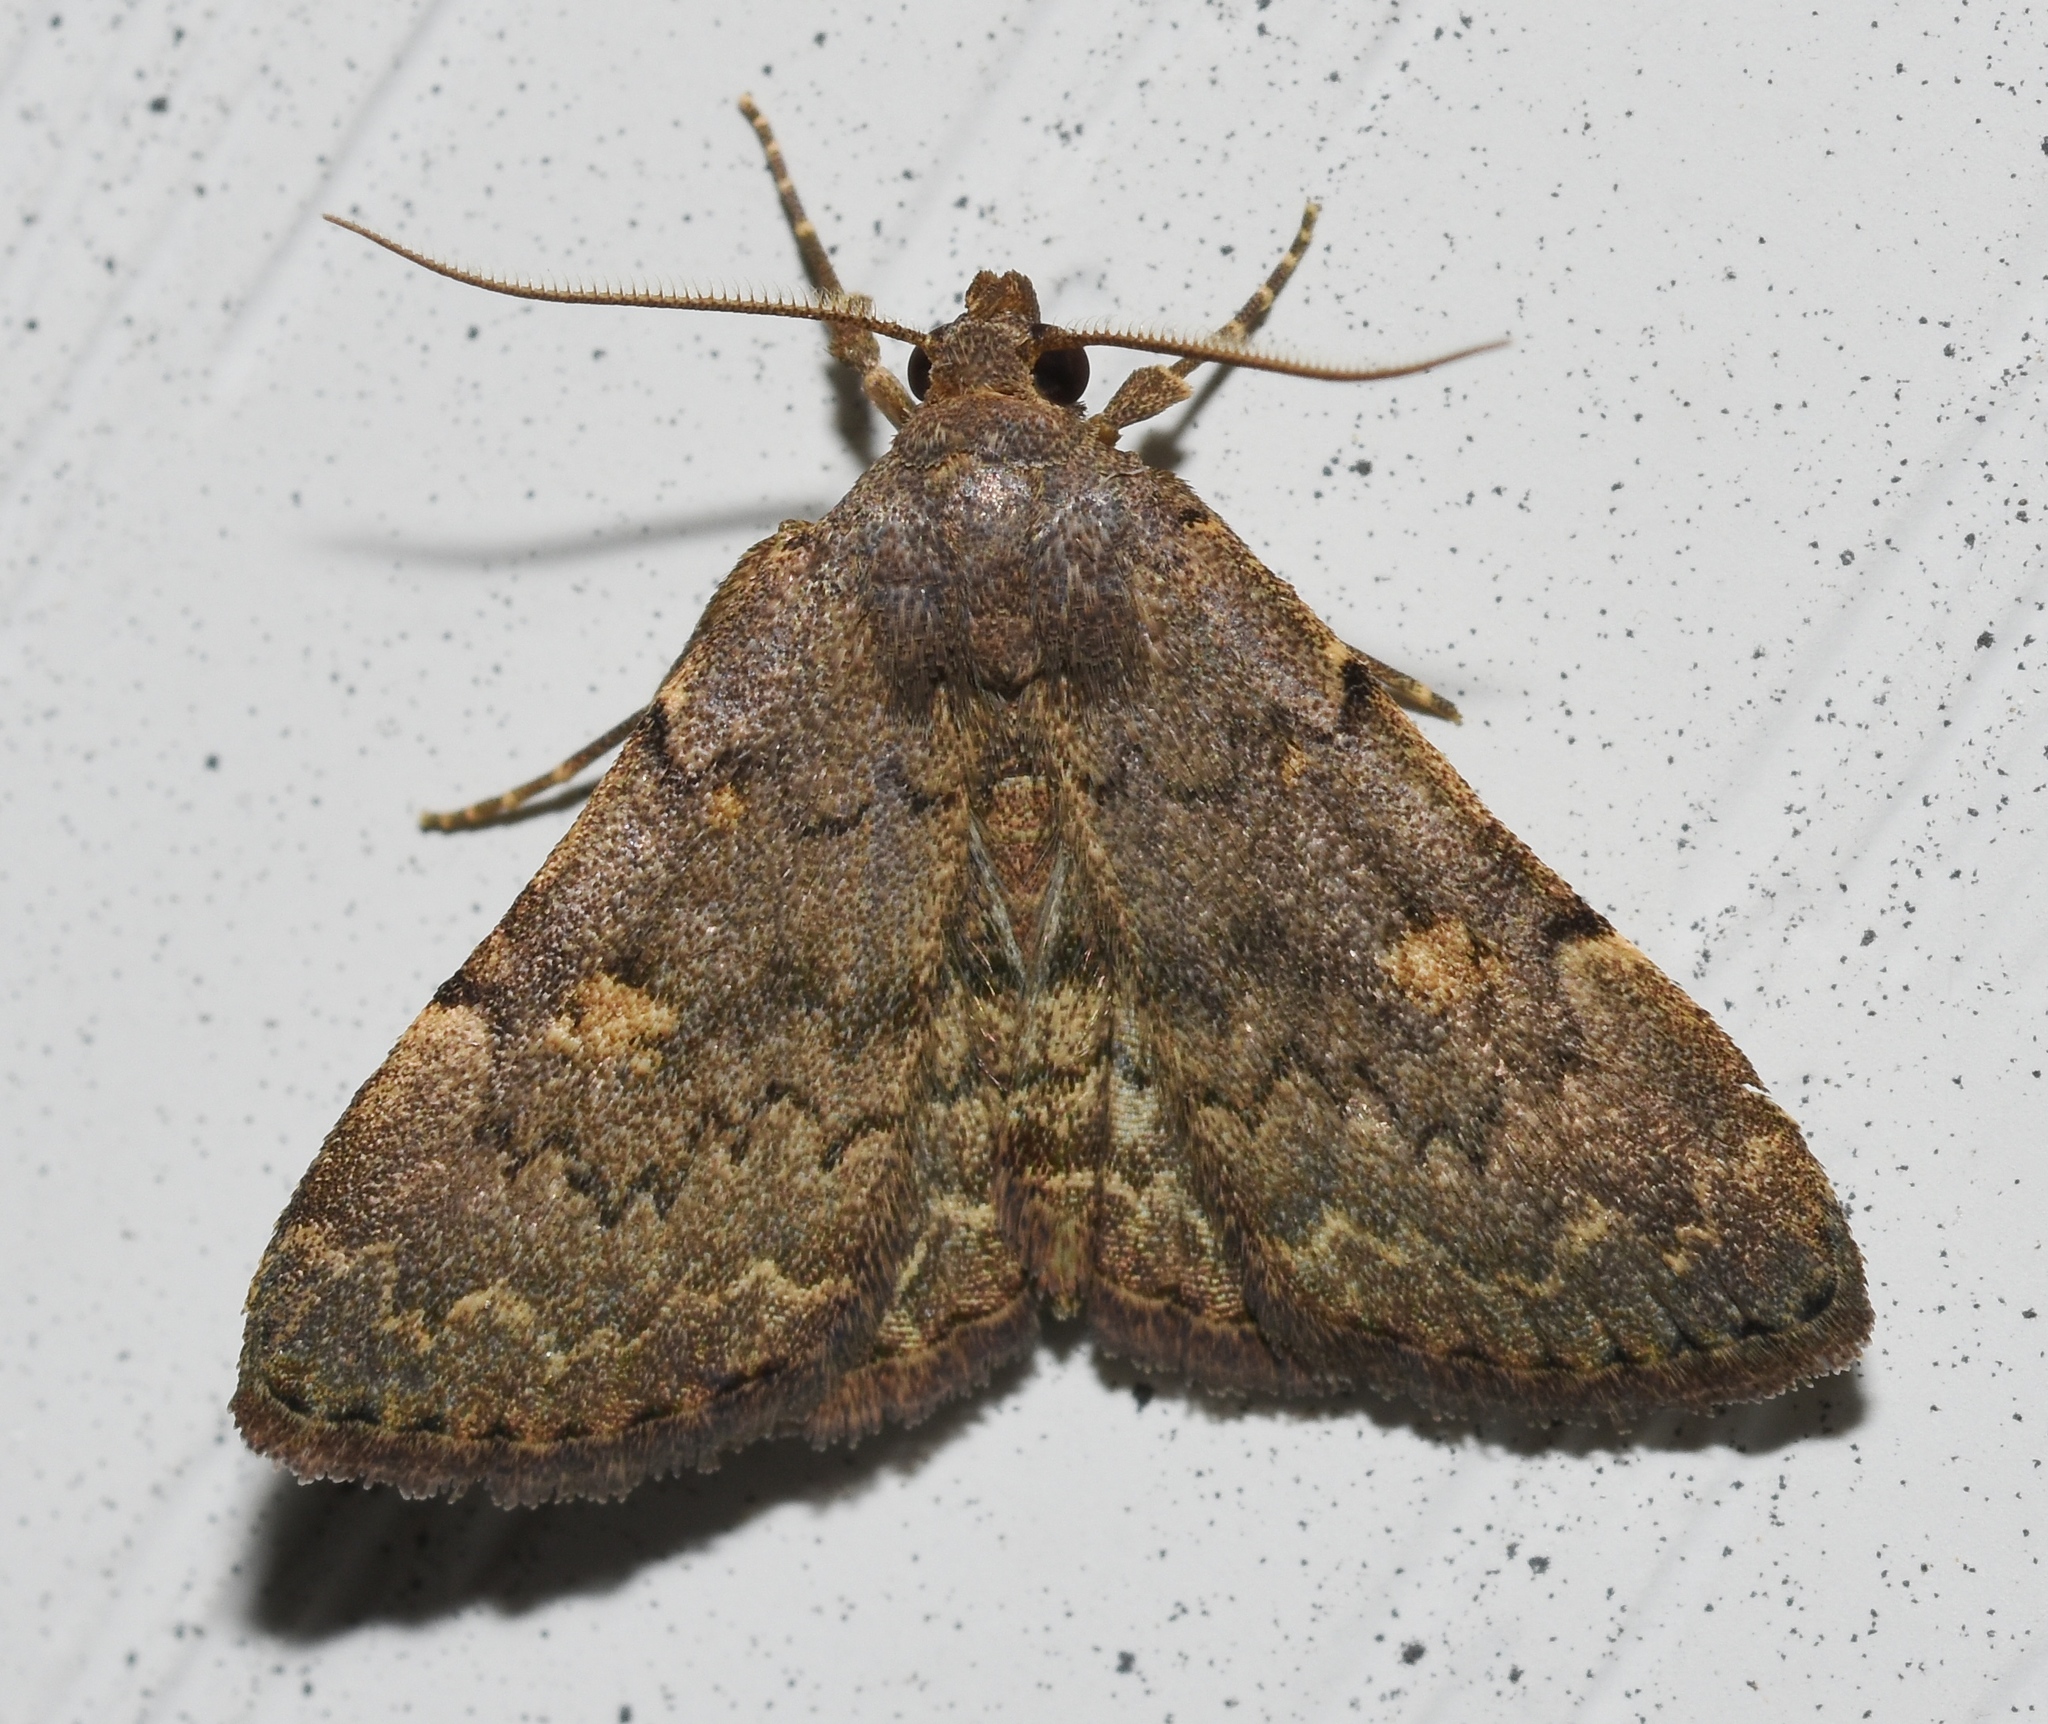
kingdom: Animalia
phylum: Arthropoda
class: Insecta
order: Lepidoptera
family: Erebidae
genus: Idia
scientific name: Idia aemula
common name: Common idia moth
